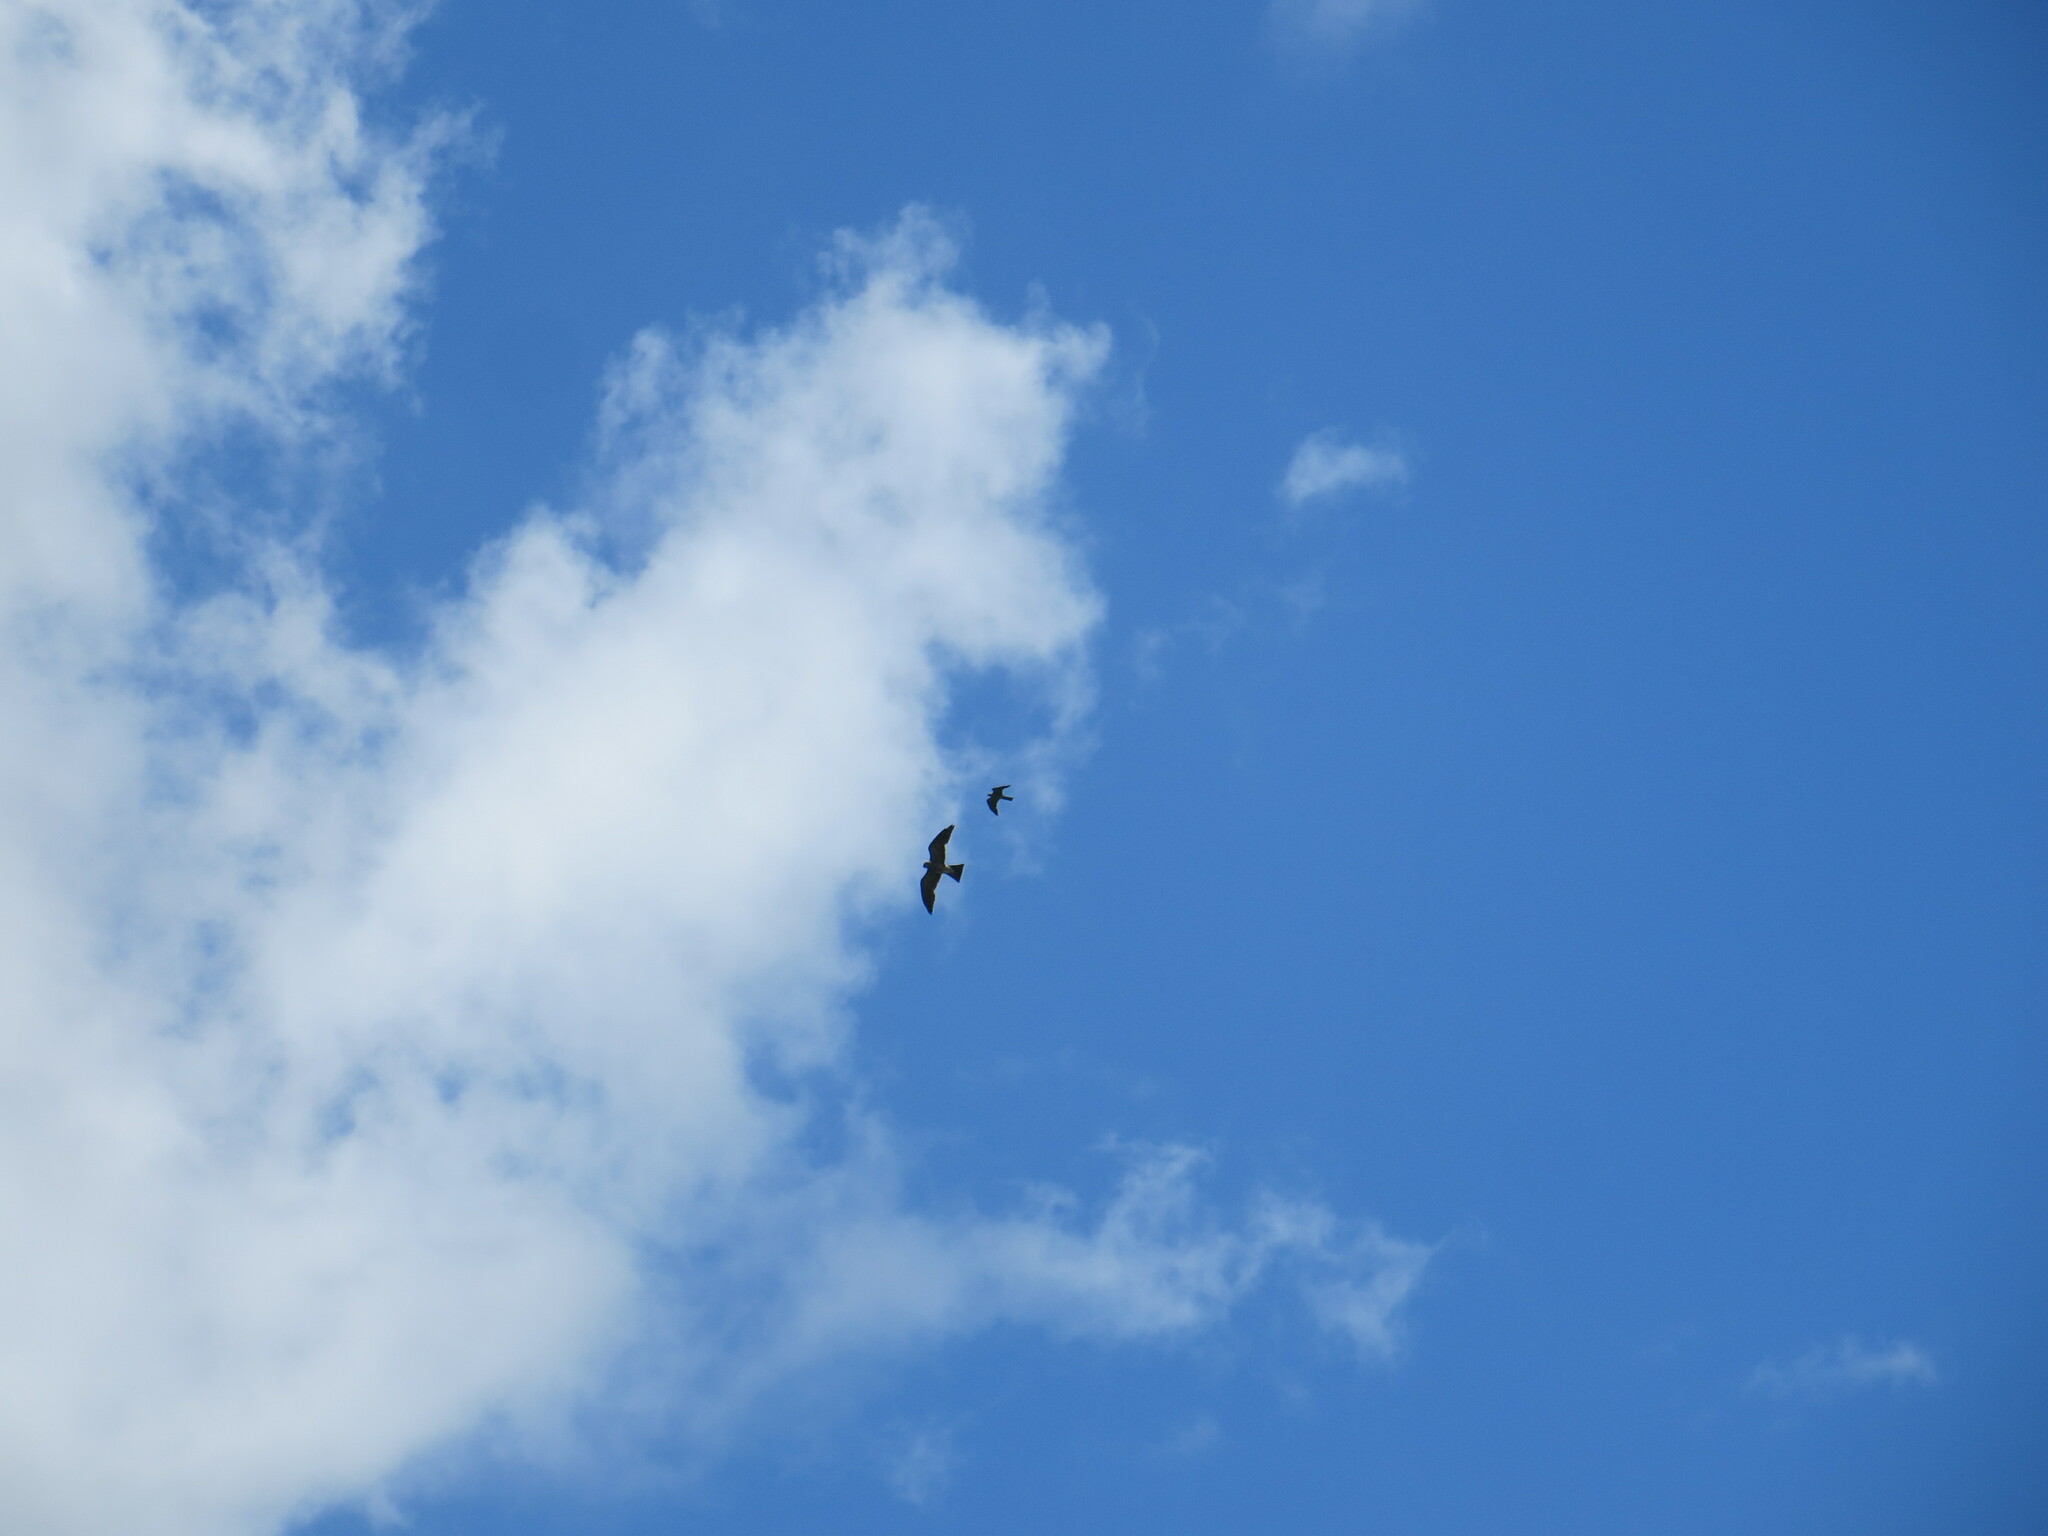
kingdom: Animalia
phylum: Chordata
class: Aves
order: Accipitriformes
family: Accipitridae
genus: Ictinia
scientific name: Ictinia mississippiensis
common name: Mississippi kite
